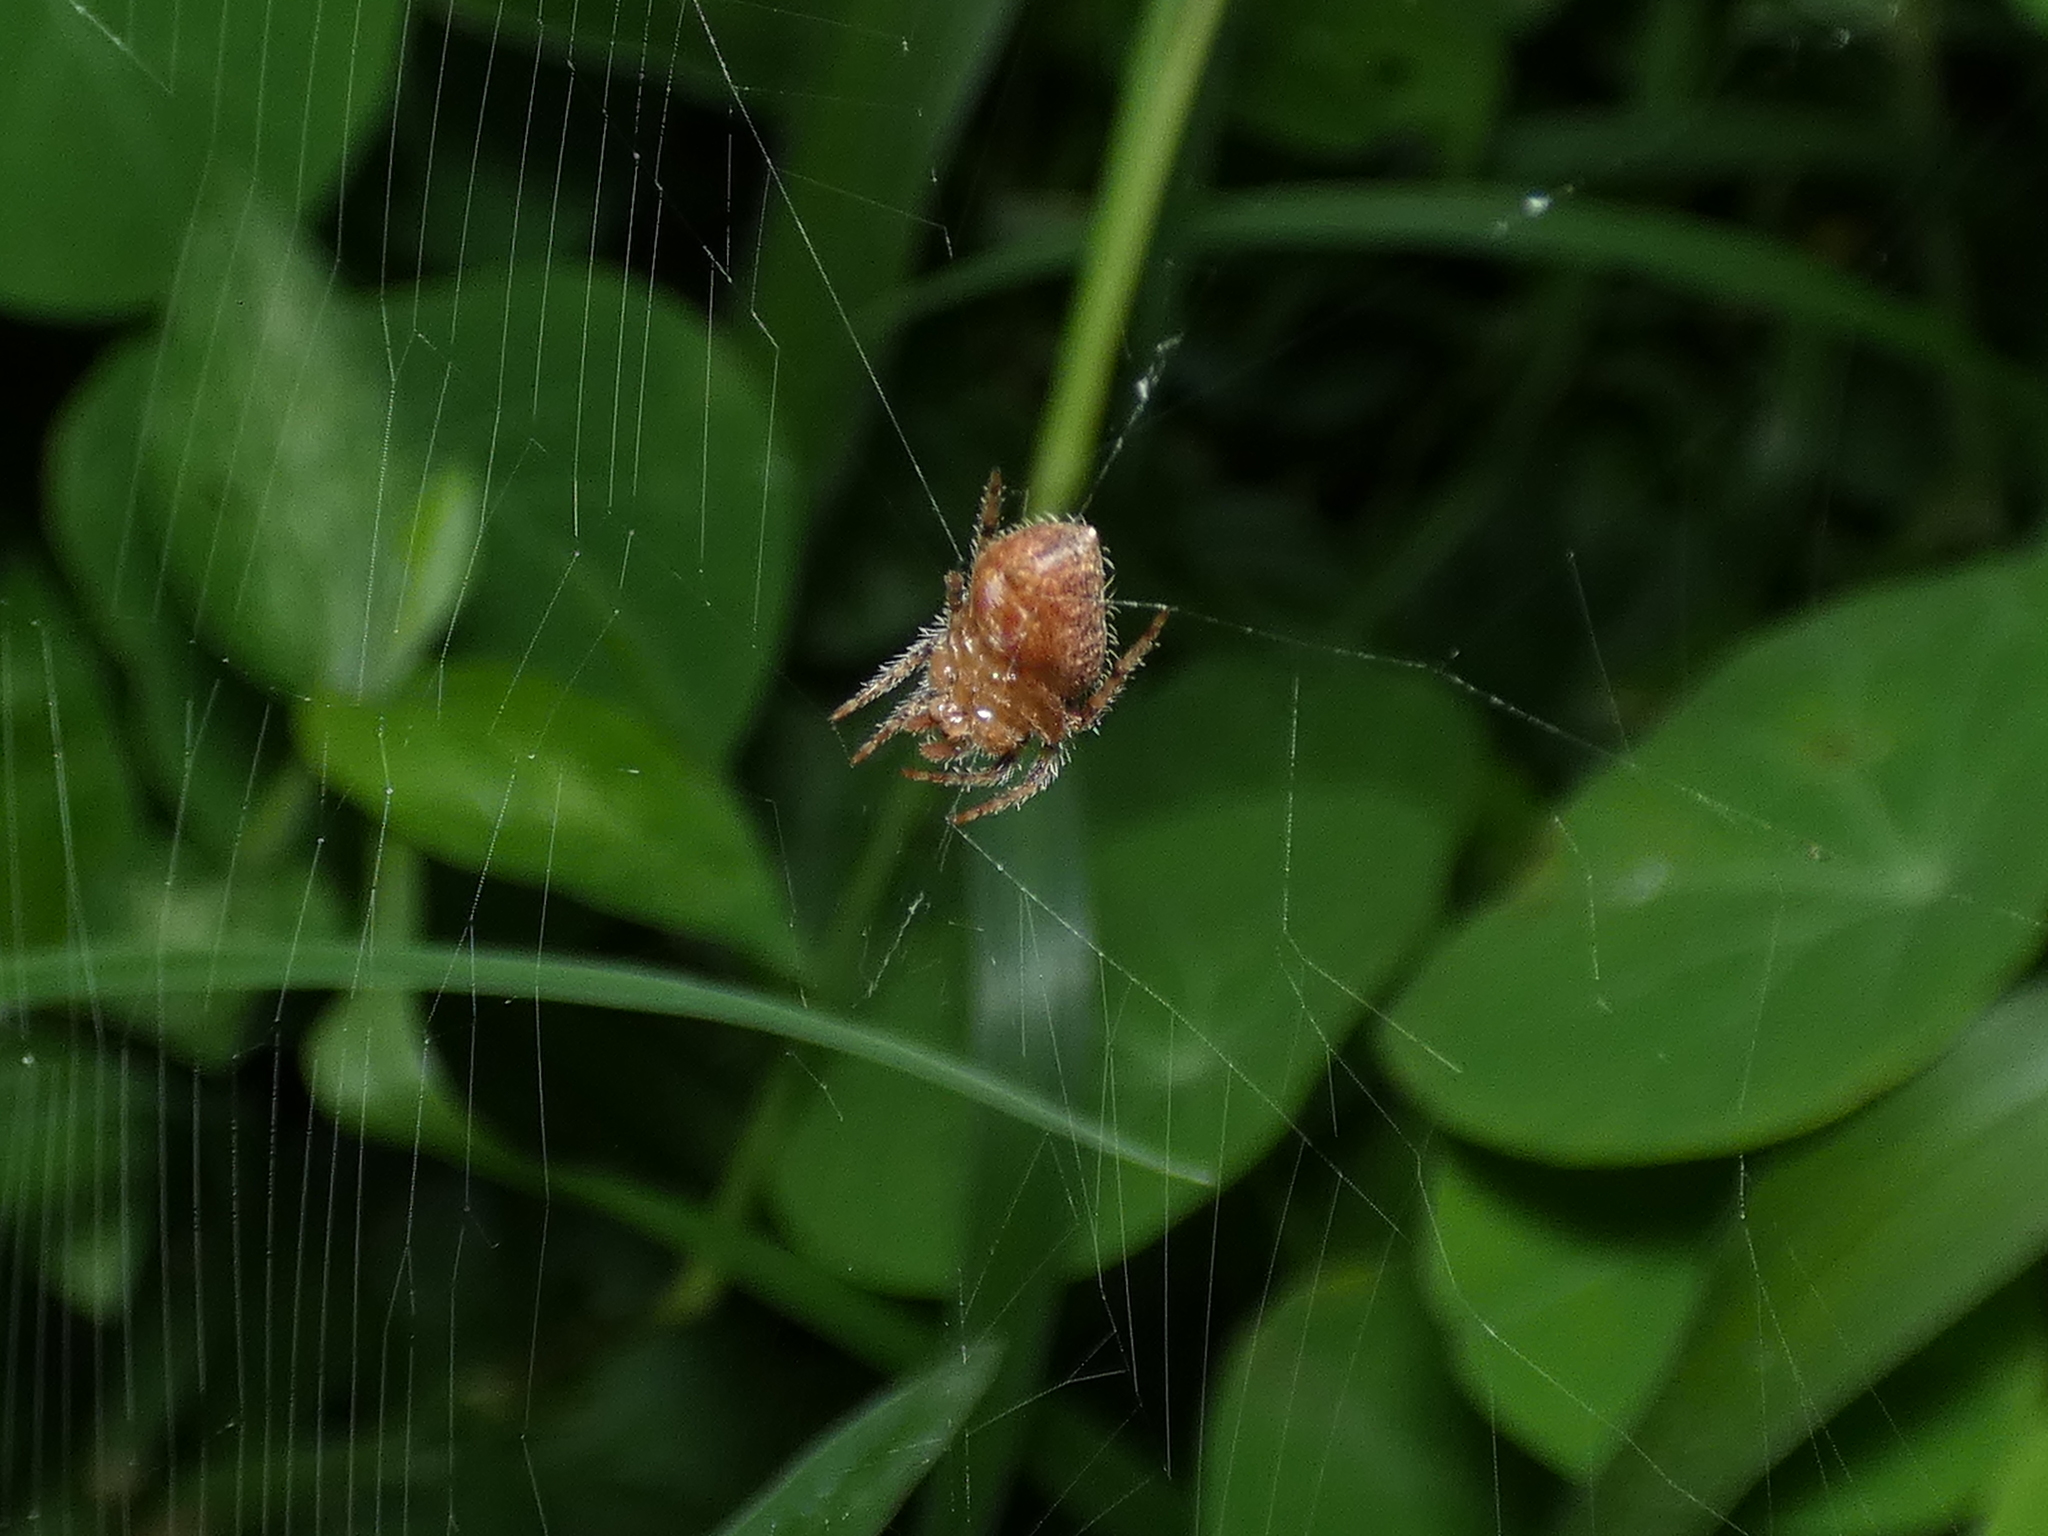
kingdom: Animalia
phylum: Arthropoda
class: Arachnida
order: Araneae
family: Araneidae
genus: Eriophora
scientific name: Eriophora edax
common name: Orb weavers
